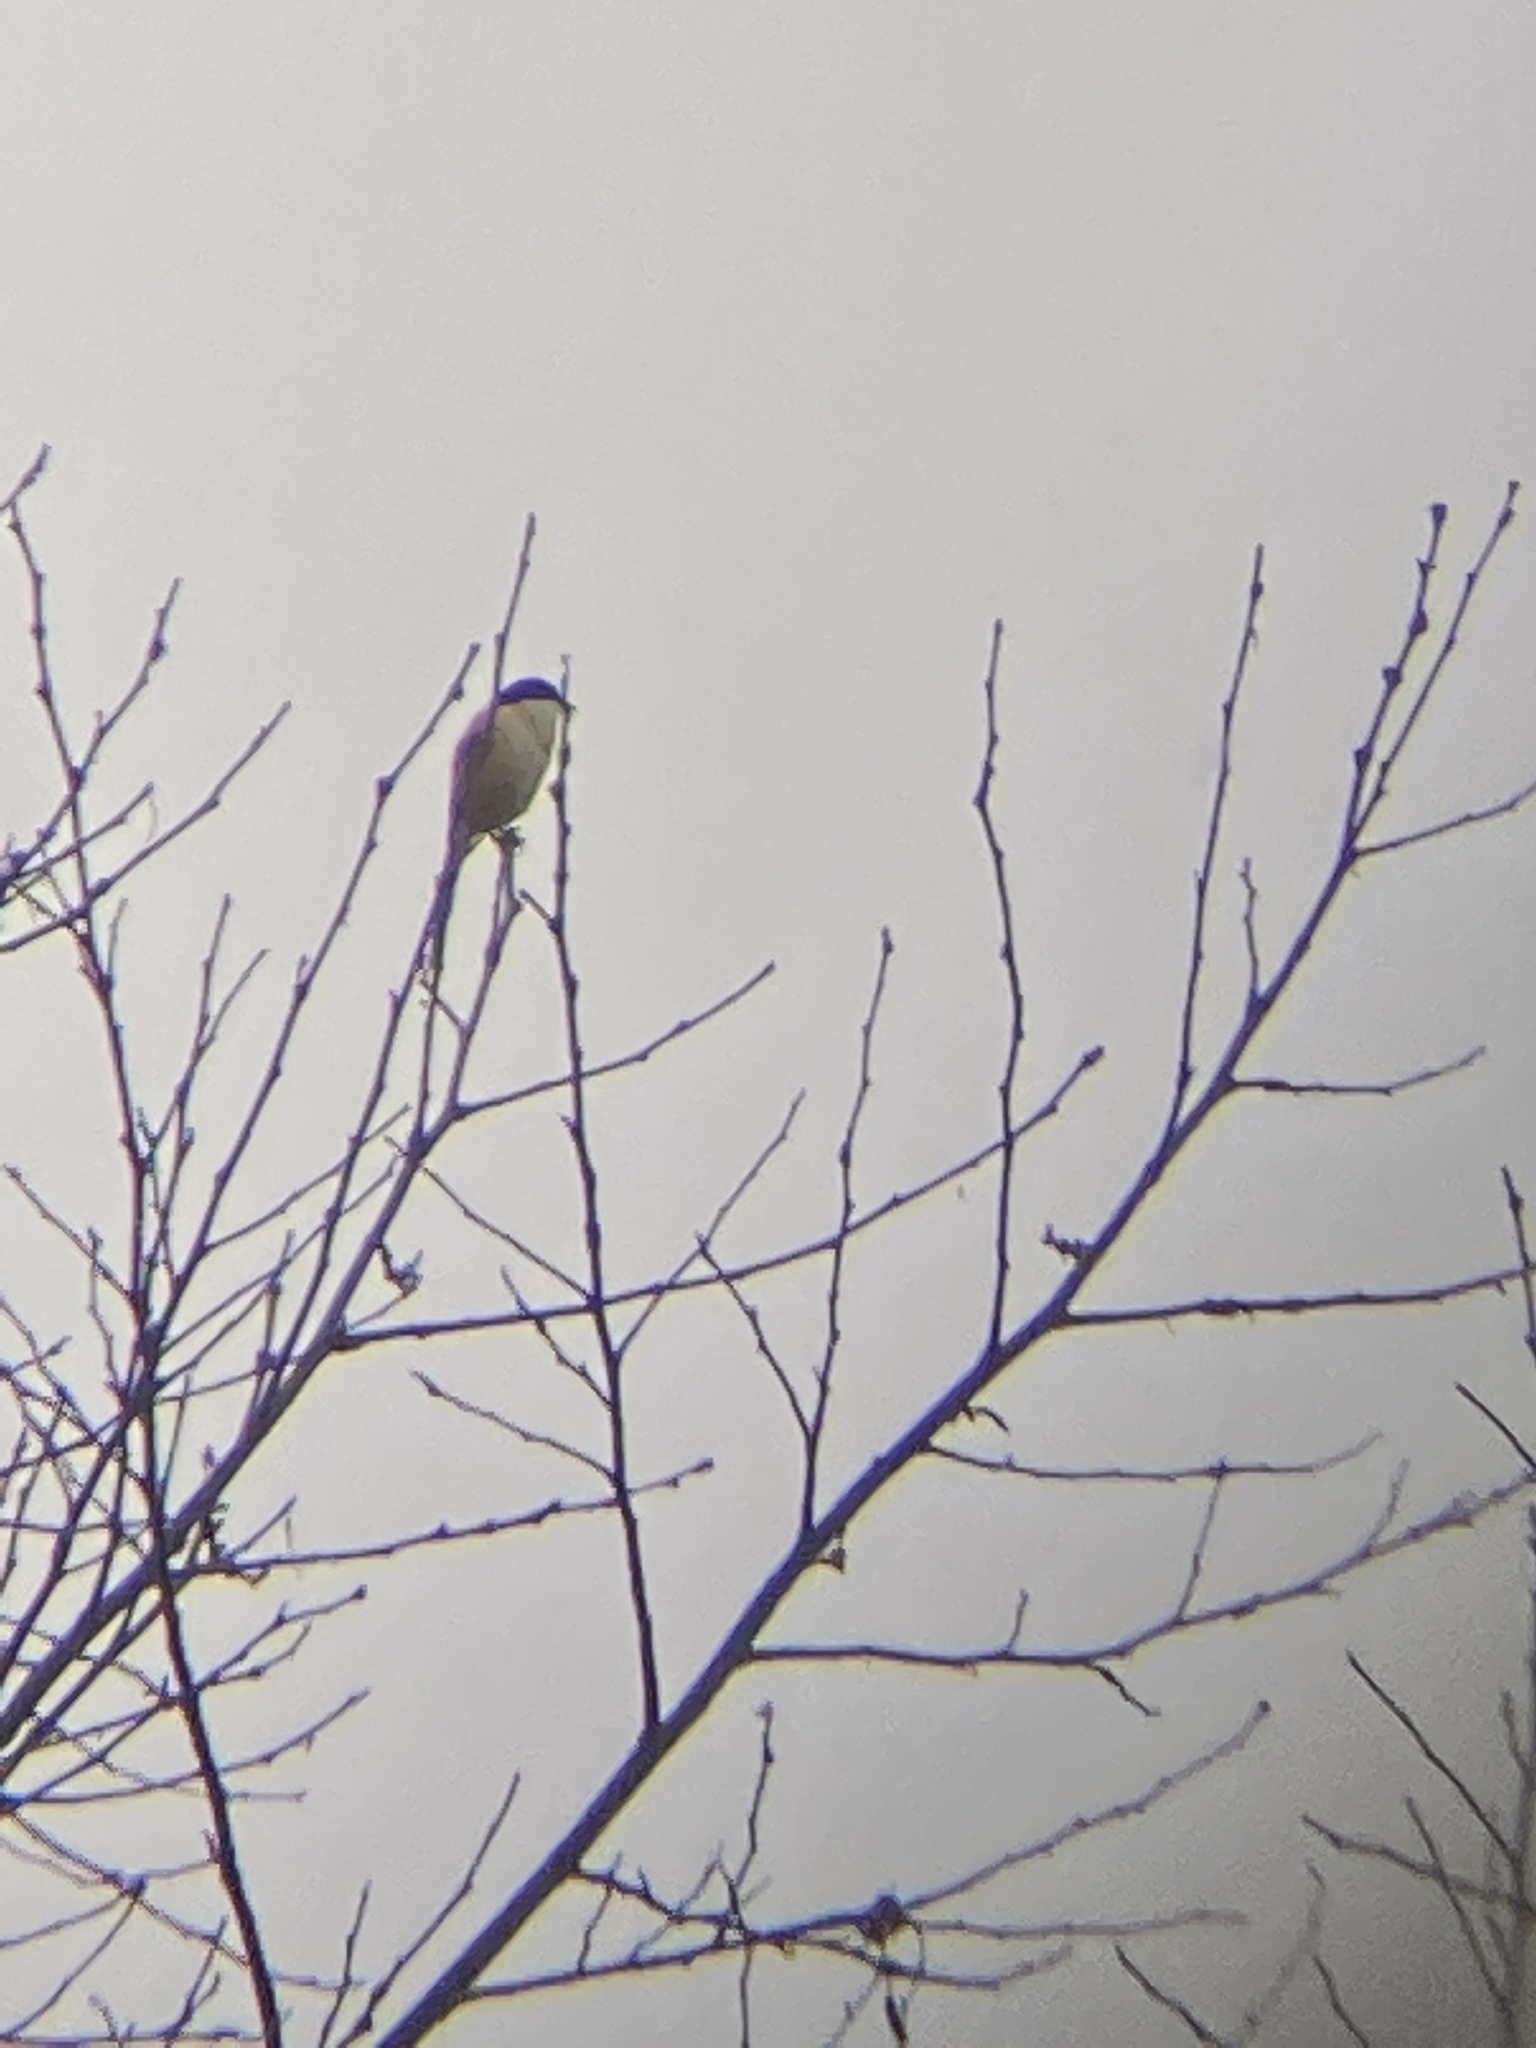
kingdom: Animalia
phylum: Chordata
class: Aves
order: Passeriformes
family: Laniidae
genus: Lanius
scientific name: Lanius schach
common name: Long-tailed shrike
